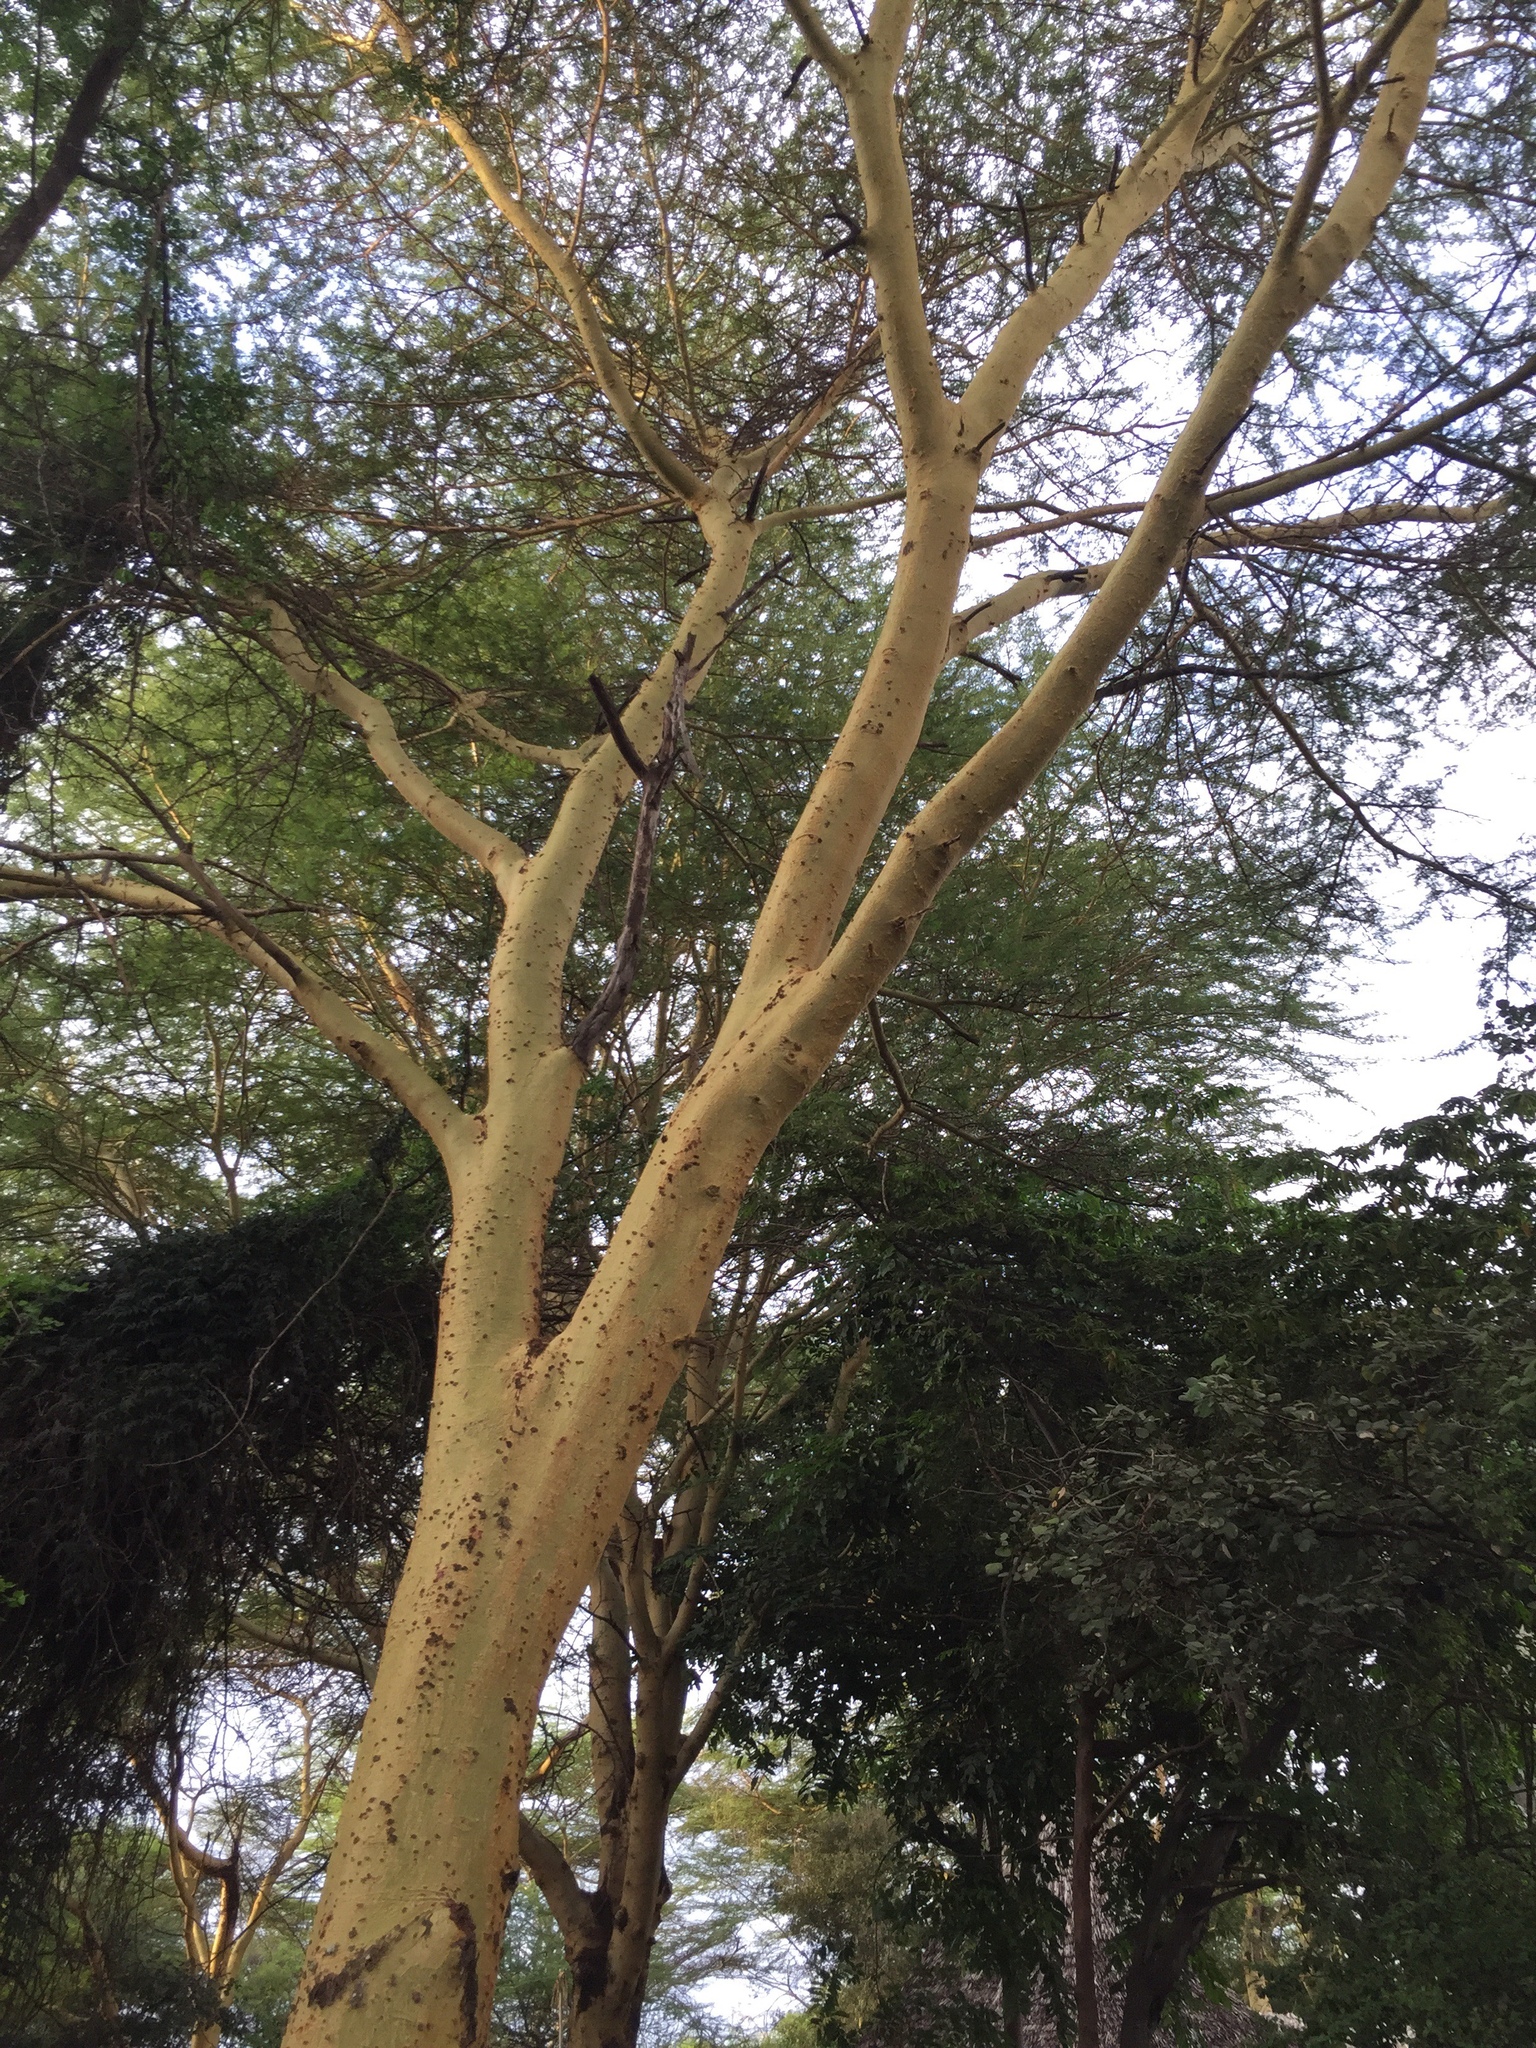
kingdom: Plantae
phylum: Tracheophyta
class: Magnoliopsida
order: Fabales
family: Fabaceae
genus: Vachellia
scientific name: Vachellia xanthophloea
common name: Fever tree
